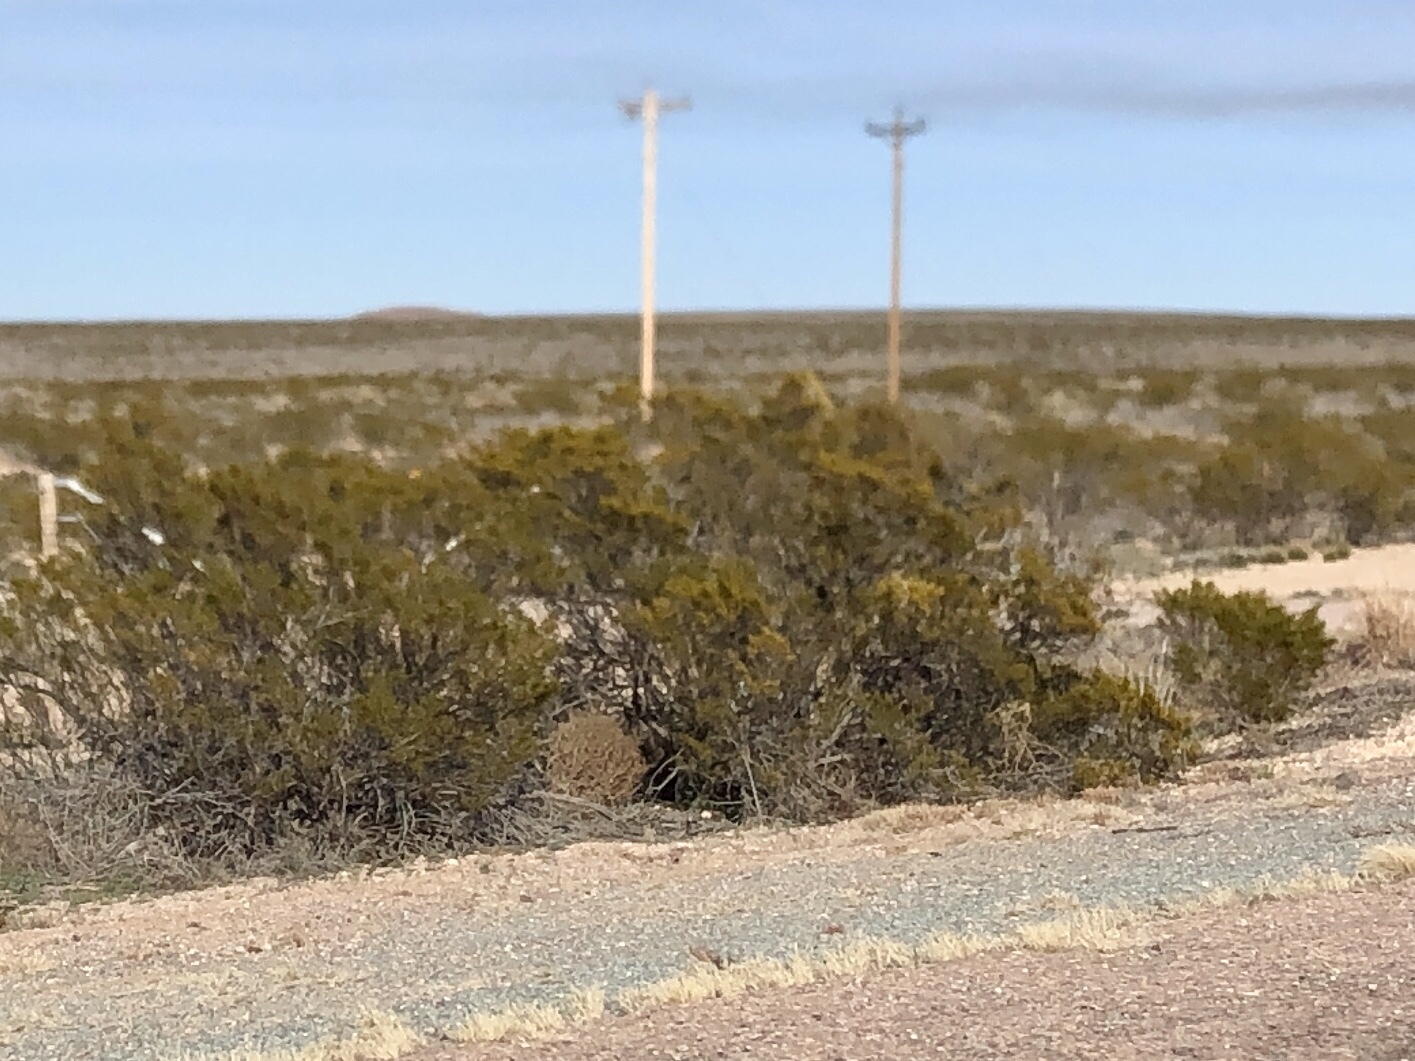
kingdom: Plantae
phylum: Tracheophyta
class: Magnoliopsida
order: Zygophyllales
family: Zygophyllaceae
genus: Larrea
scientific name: Larrea tridentata
